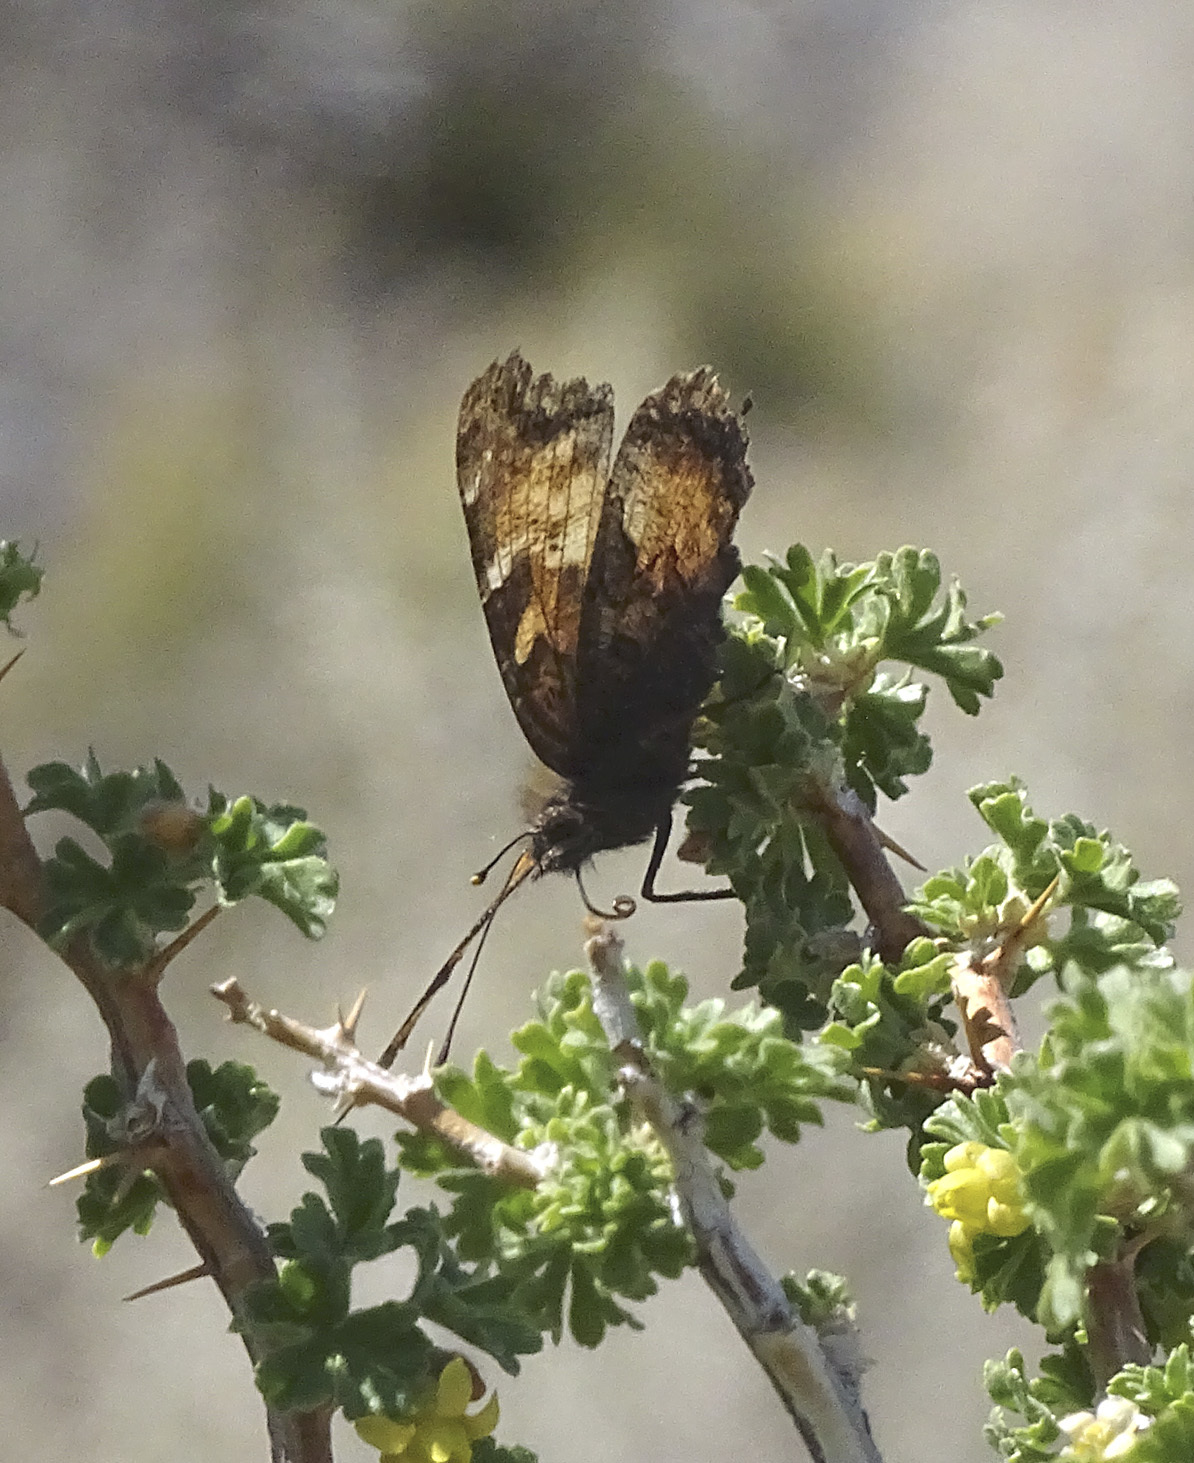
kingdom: Animalia
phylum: Arthropoda
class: Insecta
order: Lepidoptera
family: Nymphalidae
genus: Nymphalis
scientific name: Nymphalis californica
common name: California tortoiseshell
